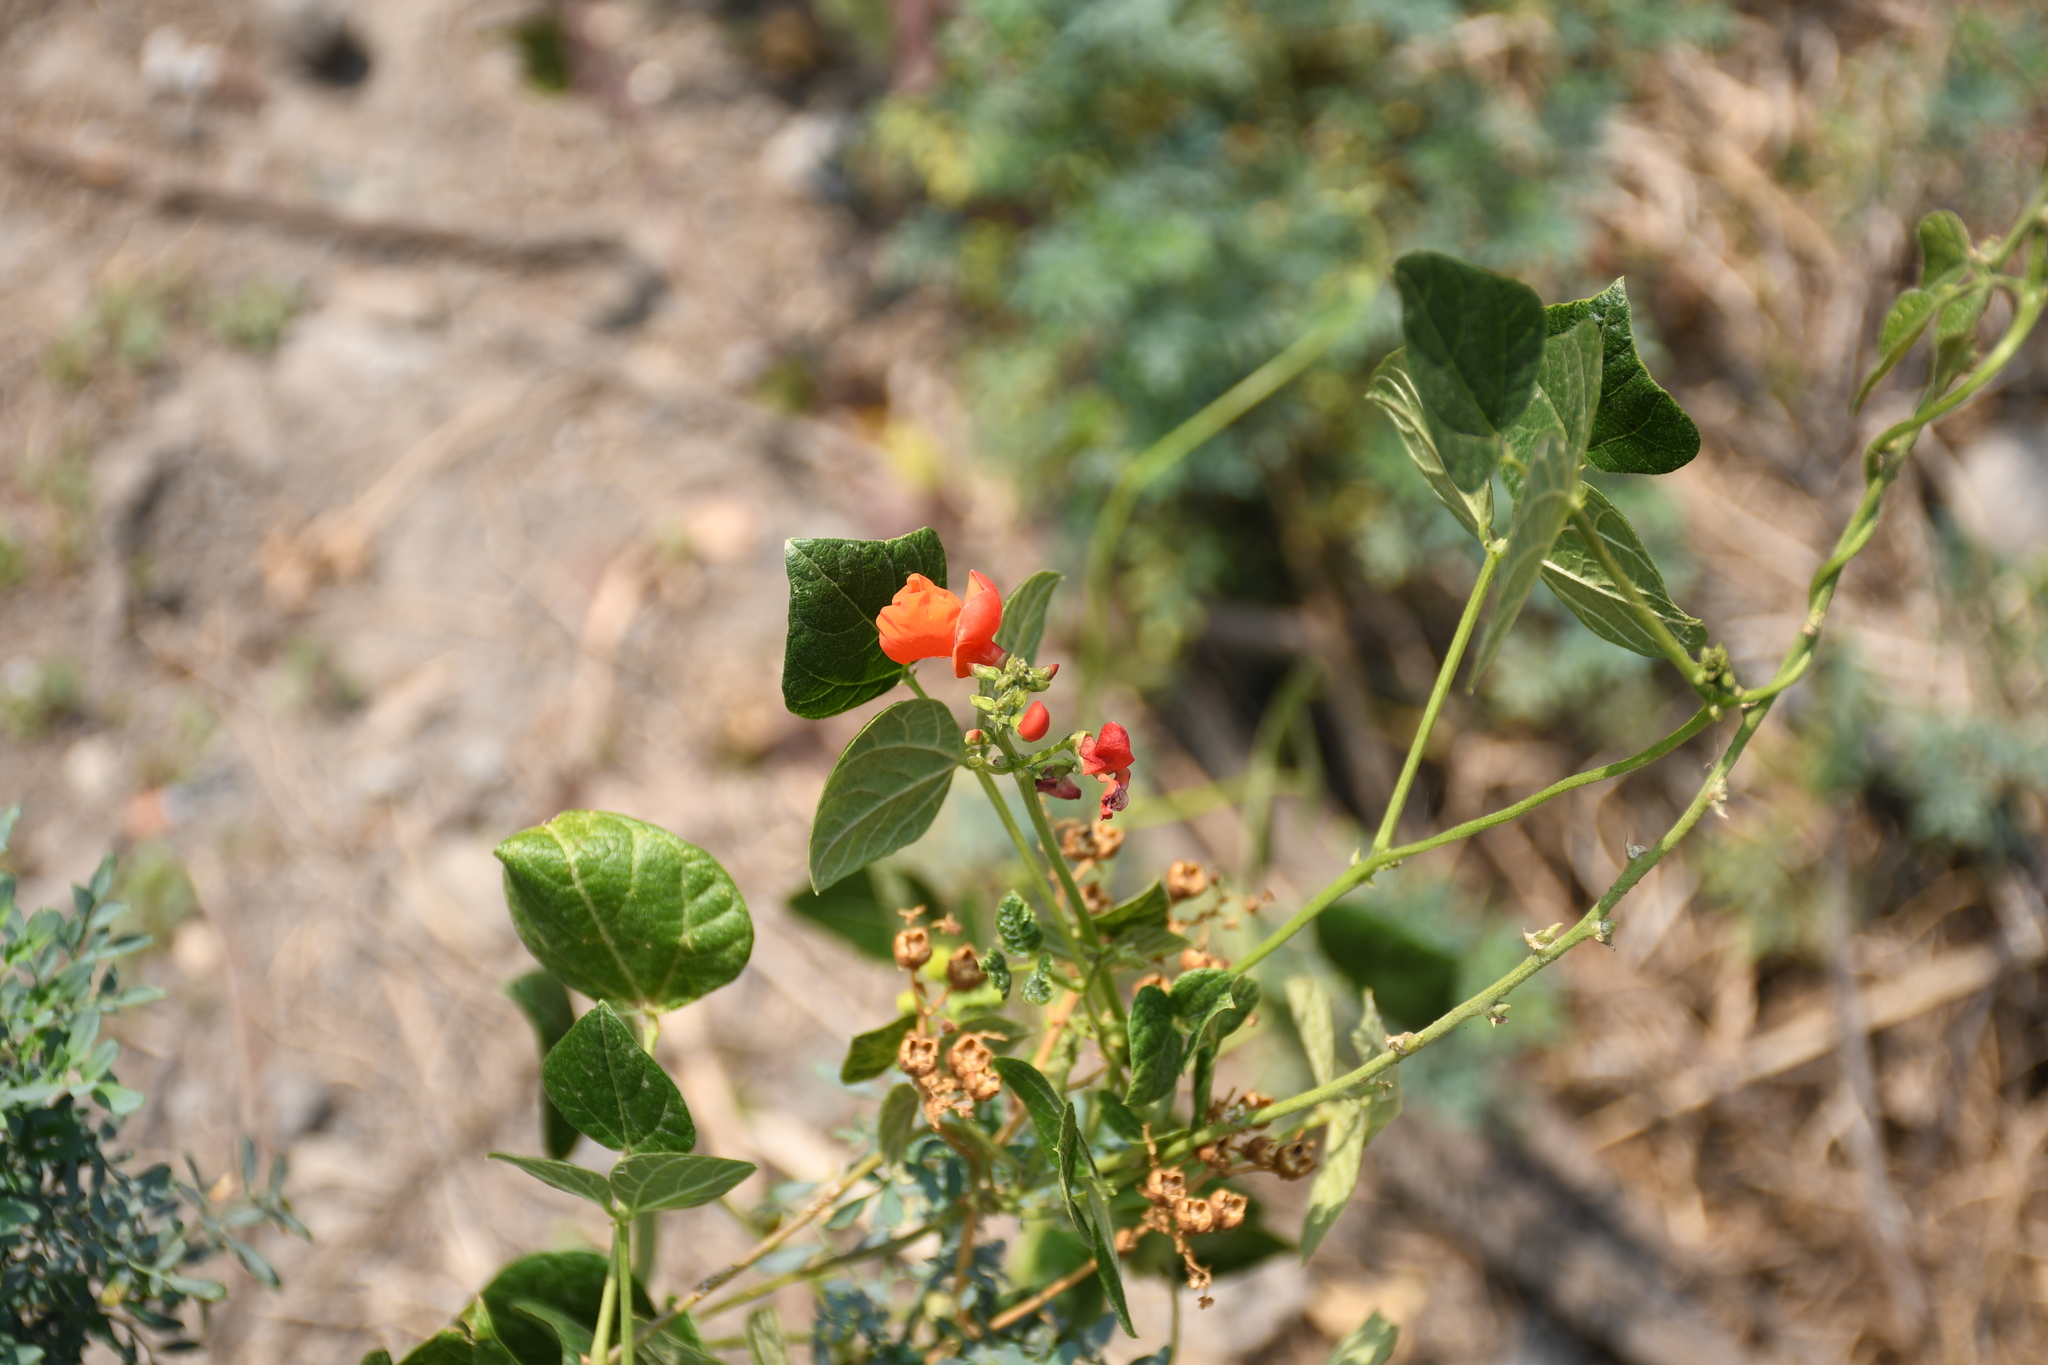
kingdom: Plantae
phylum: Tracheophyta
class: Magnoliopsida
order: Fabales
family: Fabaceae
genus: Phaseolus
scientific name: Phaseolus coccineus
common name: Runner bean
